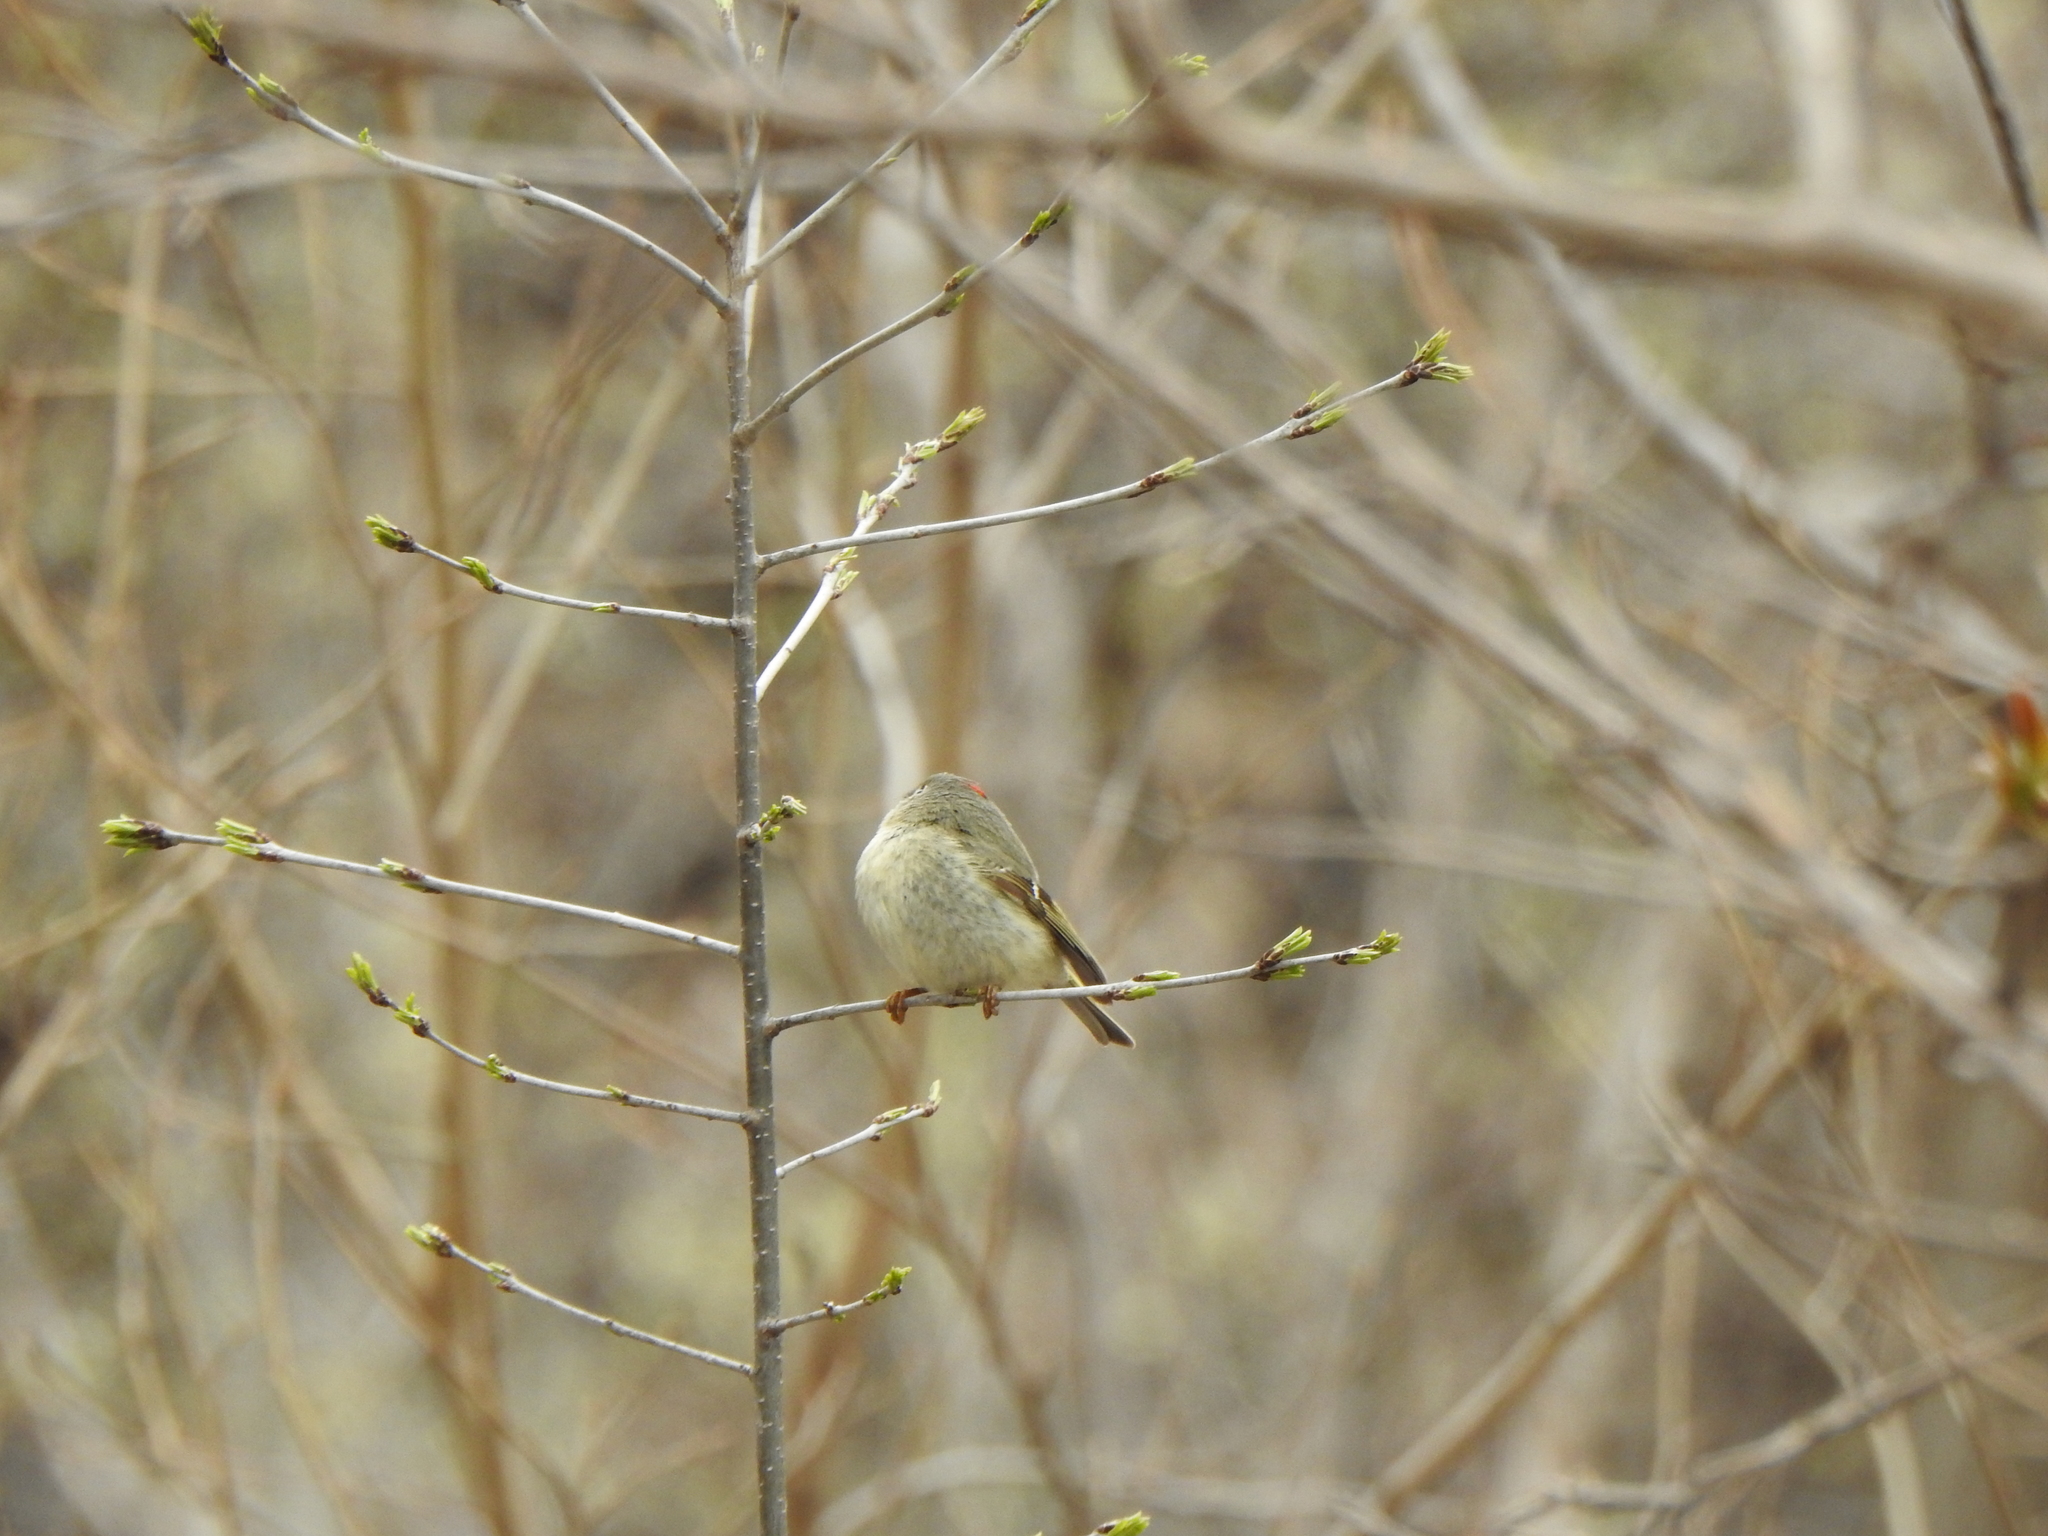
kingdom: Animalia
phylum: Chordata
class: Aves
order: Passeriformes
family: Regulidae
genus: Regulus
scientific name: Regulus calendula
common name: Ruby-crowned kinglet
